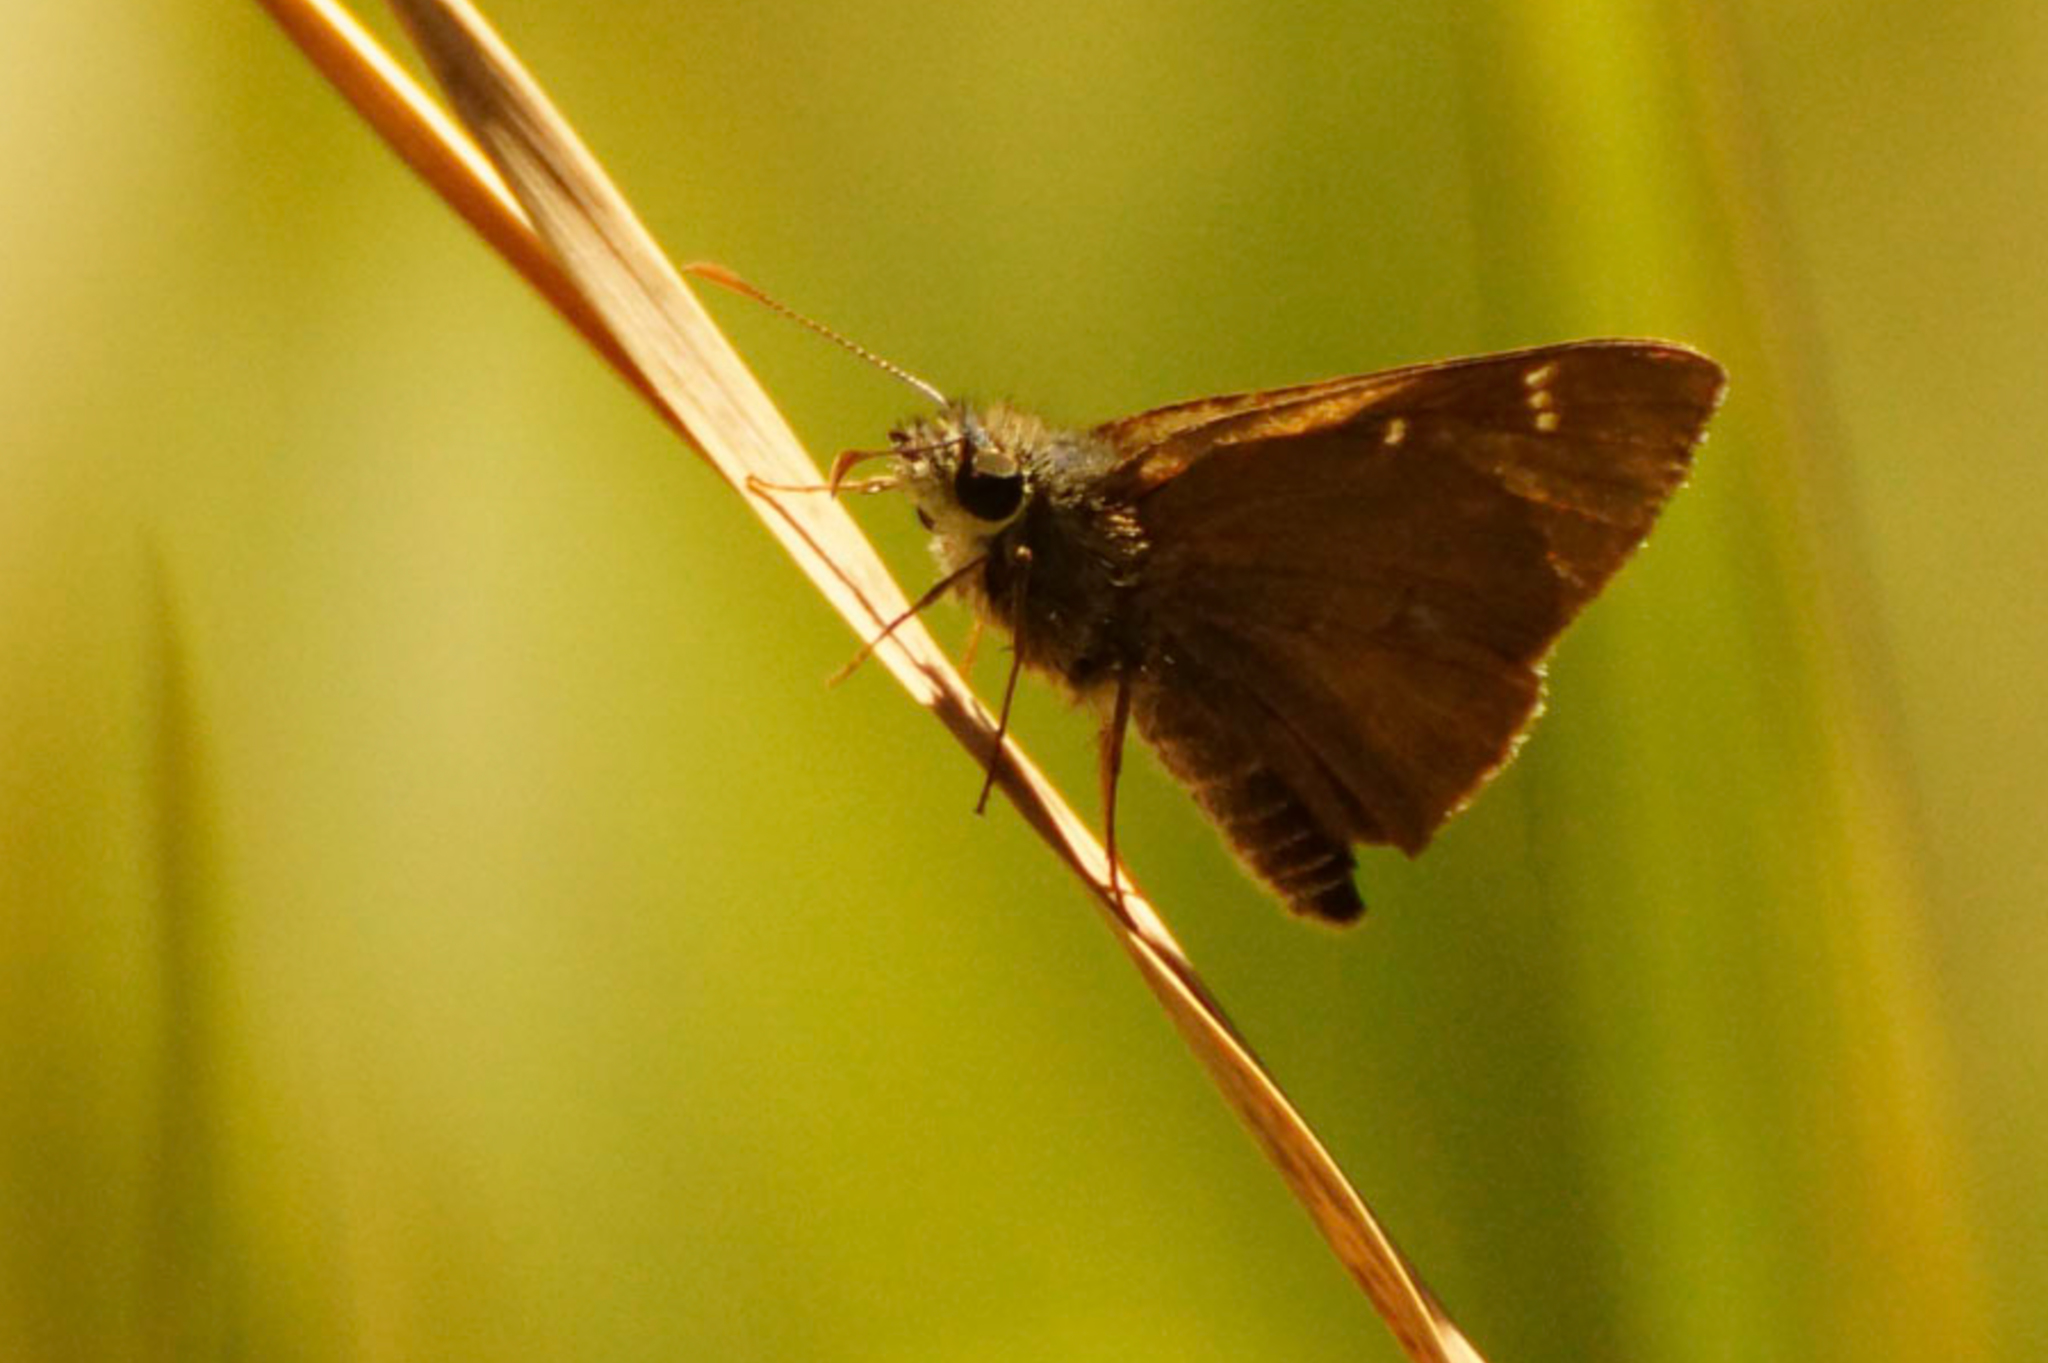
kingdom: Animalia
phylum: Arthropoda
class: Insecta
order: Lepidoptera
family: Hesperiidae
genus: Toxidia
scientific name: Toxidia
